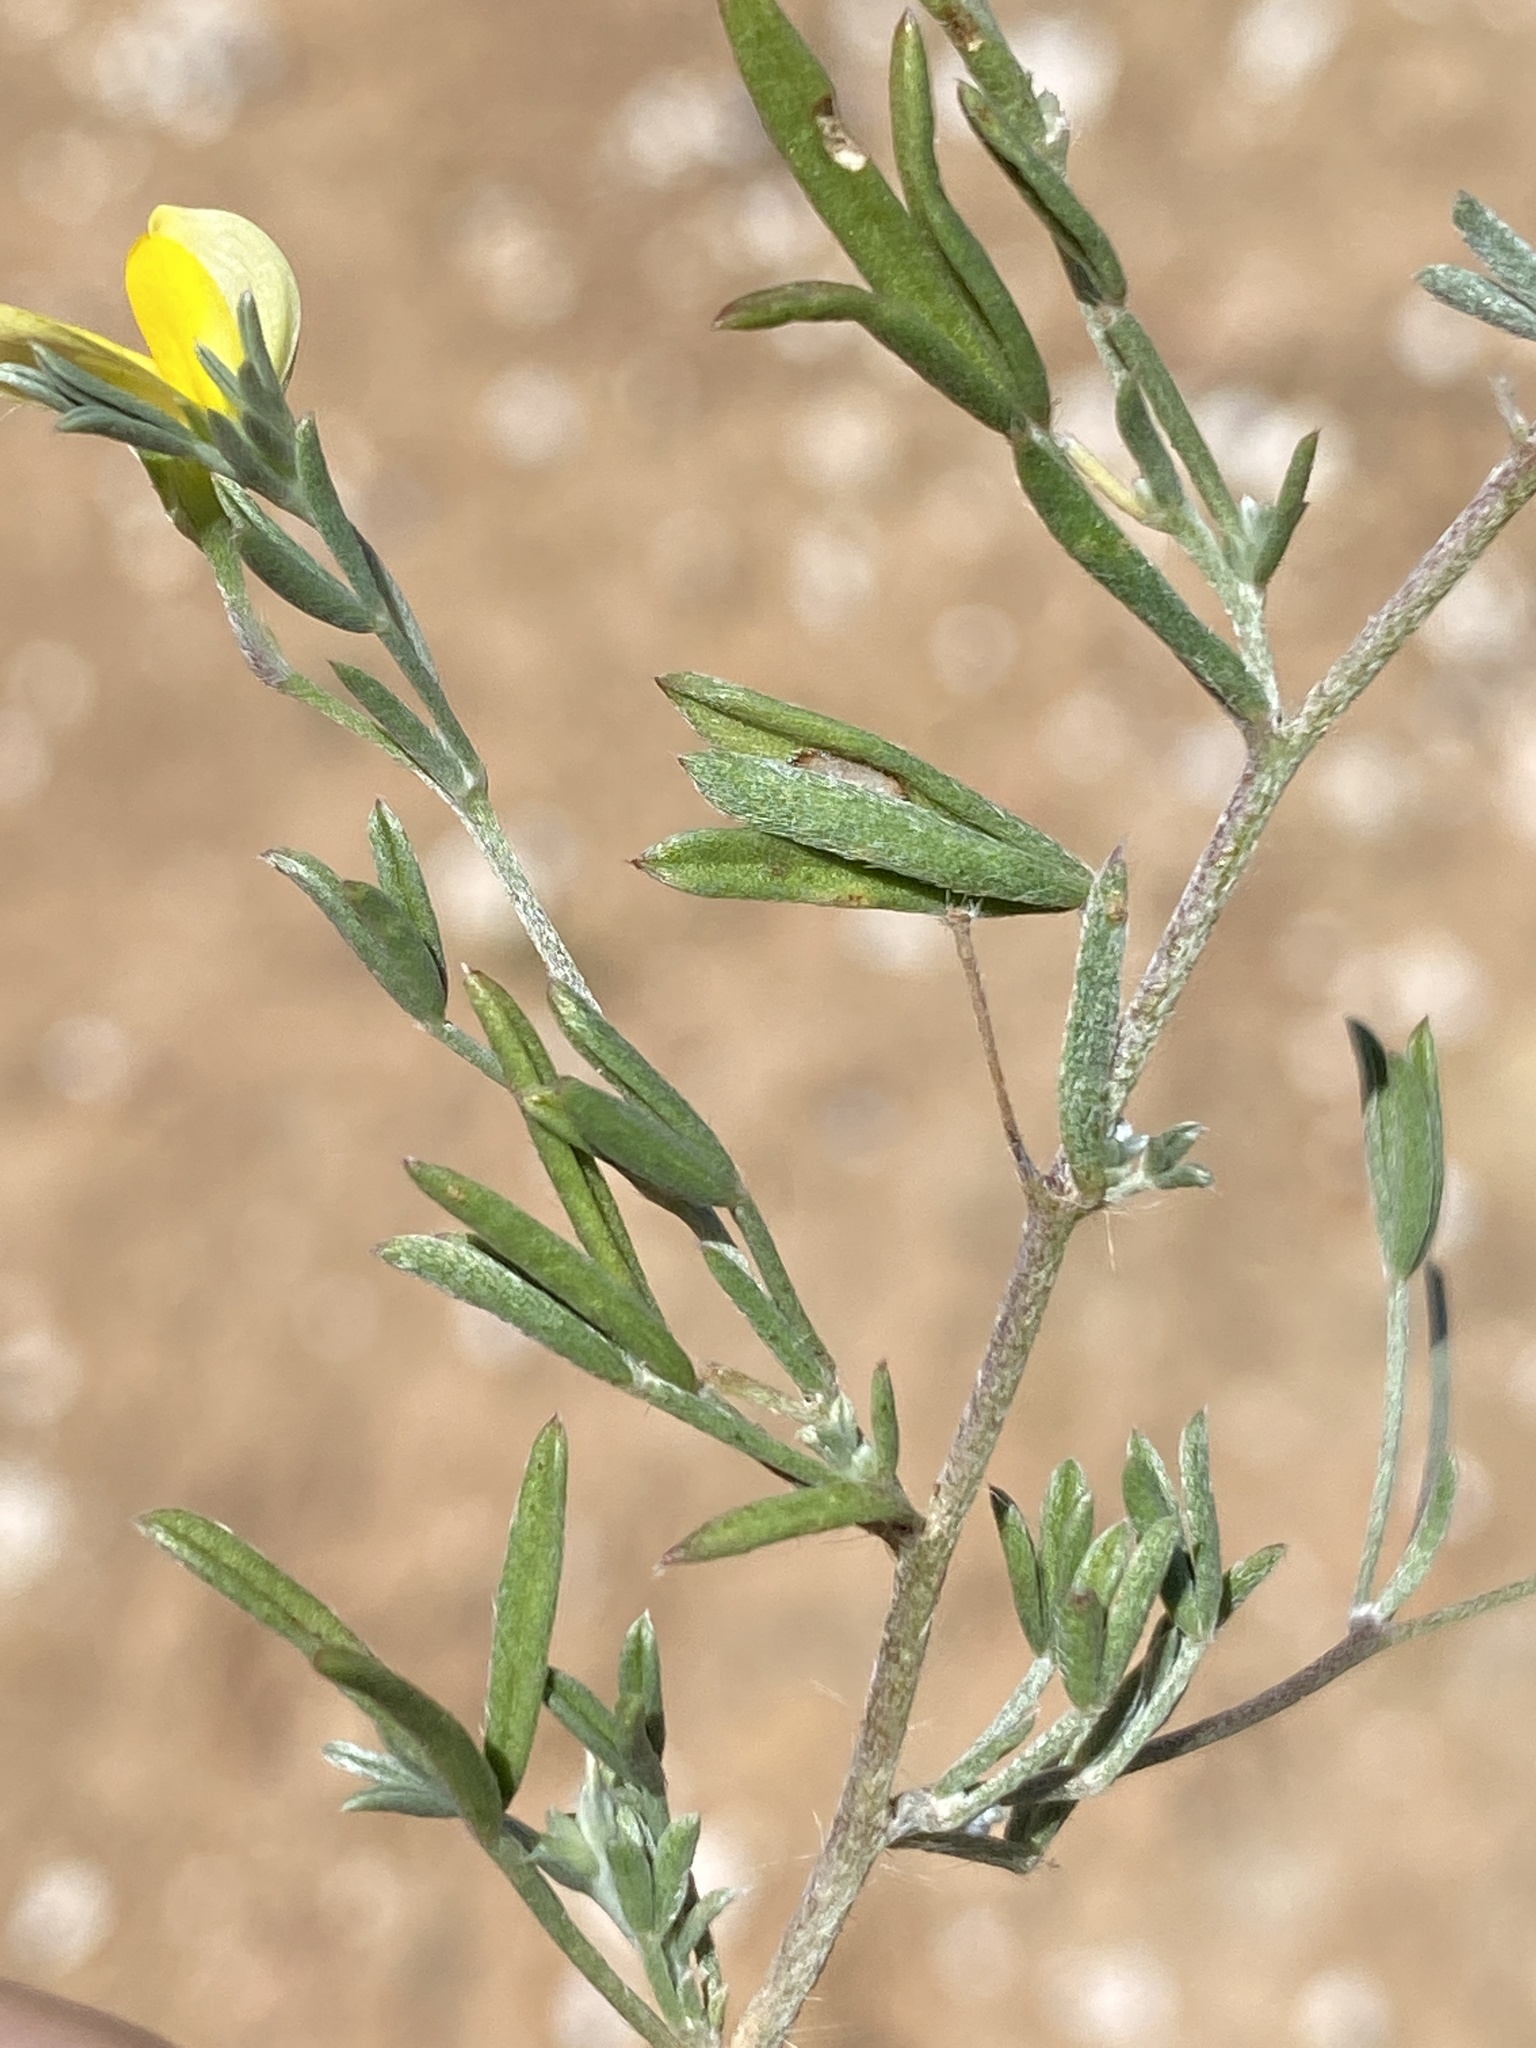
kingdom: Plantae
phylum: Tracheophyta
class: Magnoliopsida
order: Fabales
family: Fabaceae
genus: Lotononis
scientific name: Lotononis pungens
